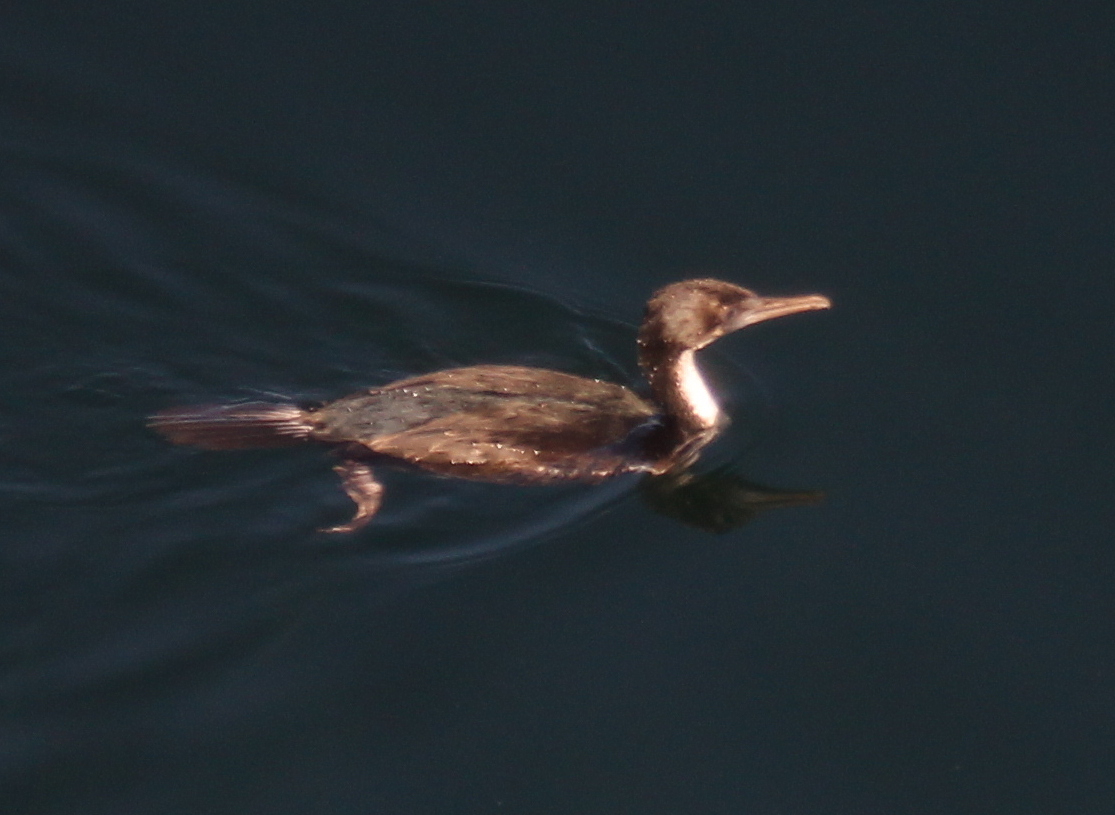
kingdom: Animalia
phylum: Chordata
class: Aves
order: Suliformes
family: Phalacrocoracidae
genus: Leucocarbo
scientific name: Leucocarbo atriceps
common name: Imperial shag
